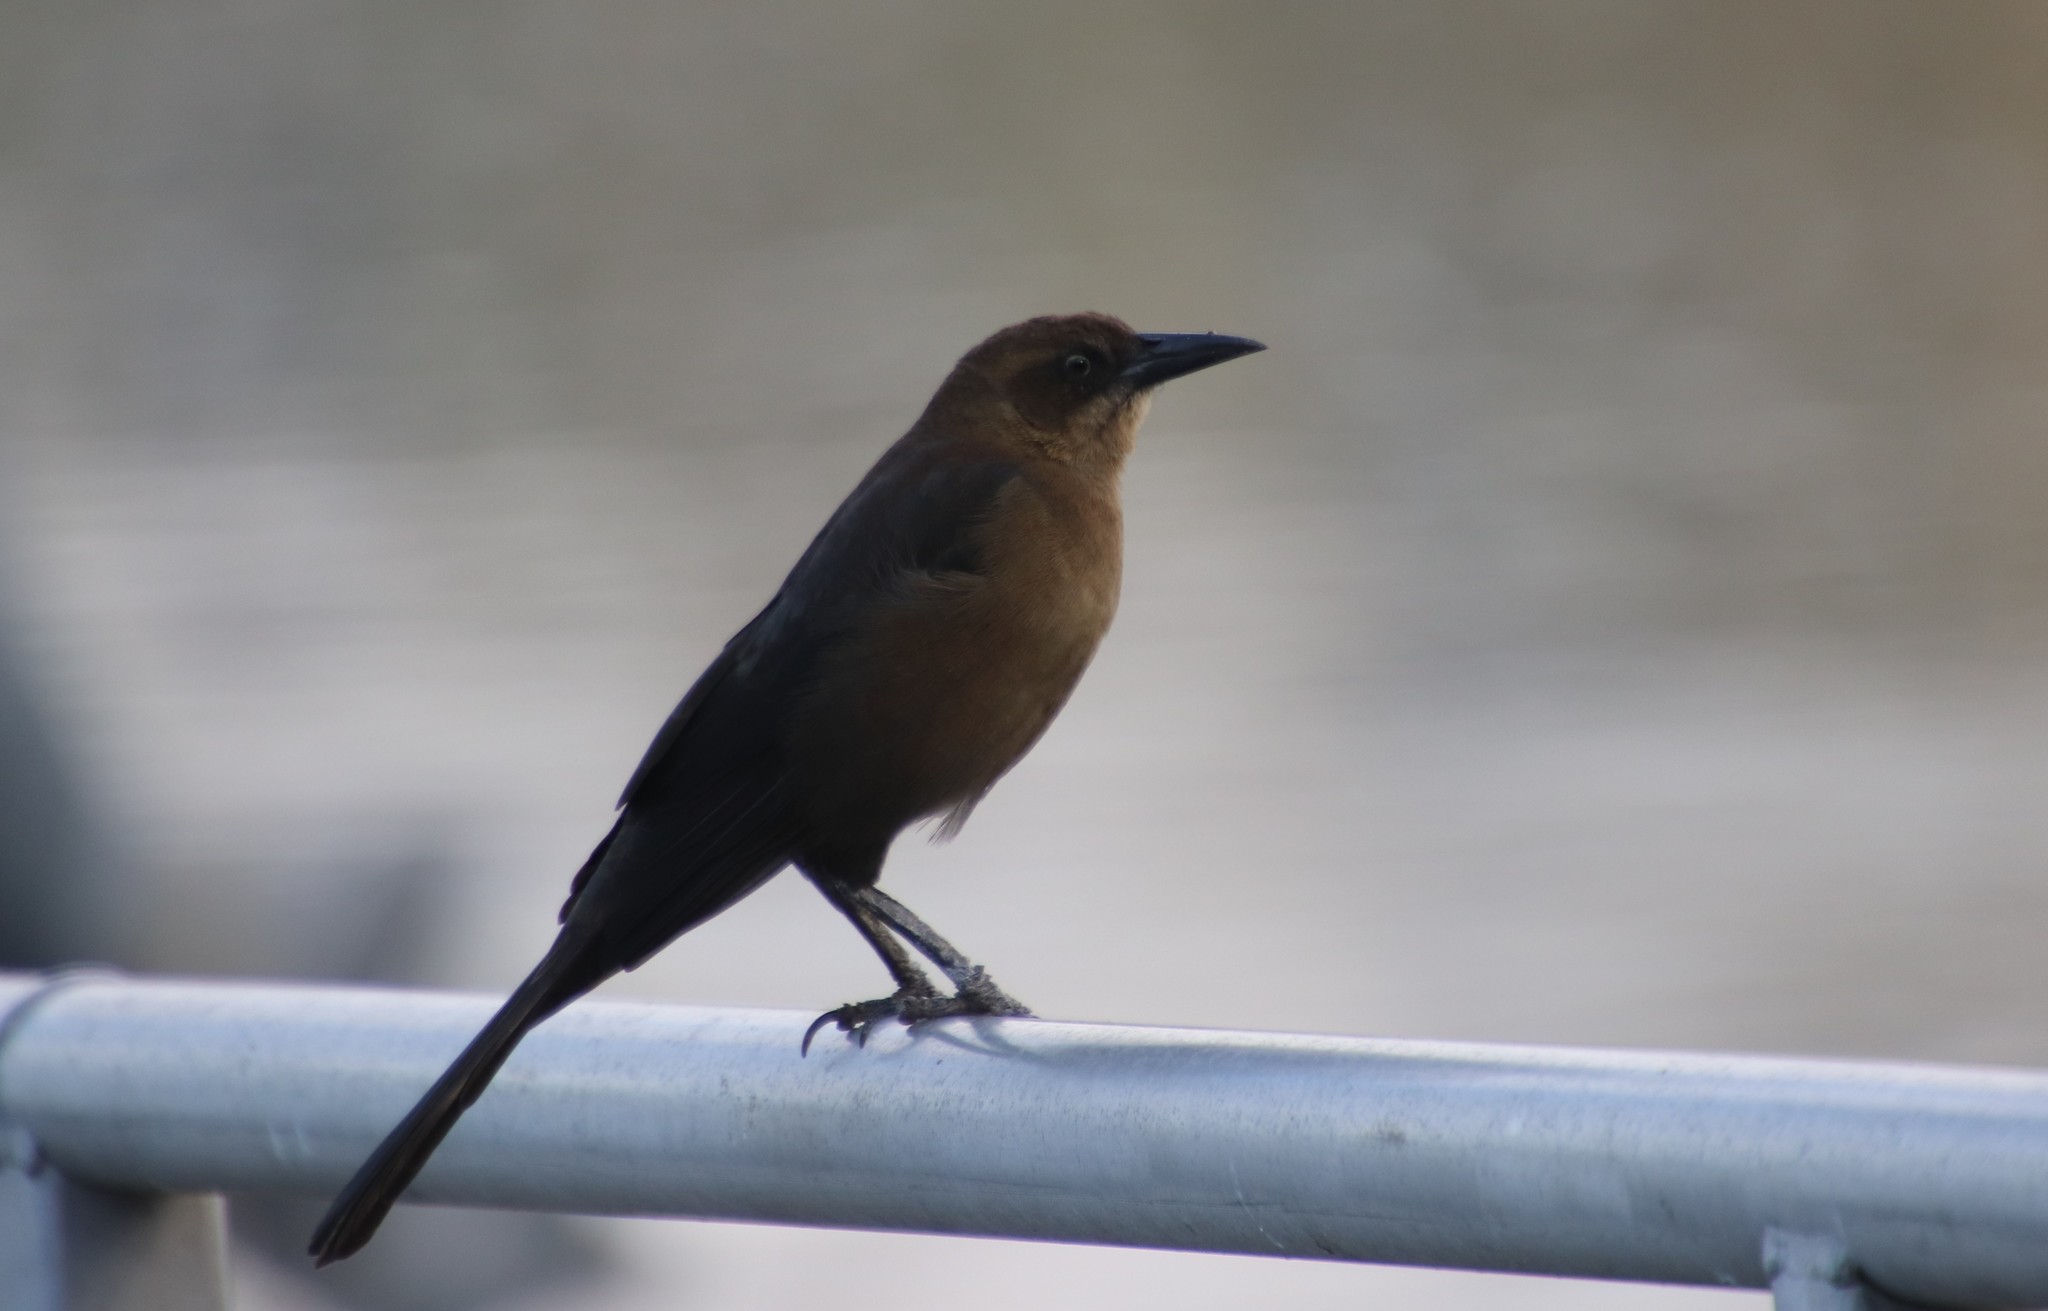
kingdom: Animalia
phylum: Chordata
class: Aves
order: Passeriformes
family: Icteridae
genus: Quiscalus
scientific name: Quiscalus mexicanus
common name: Great-tailed grackle
